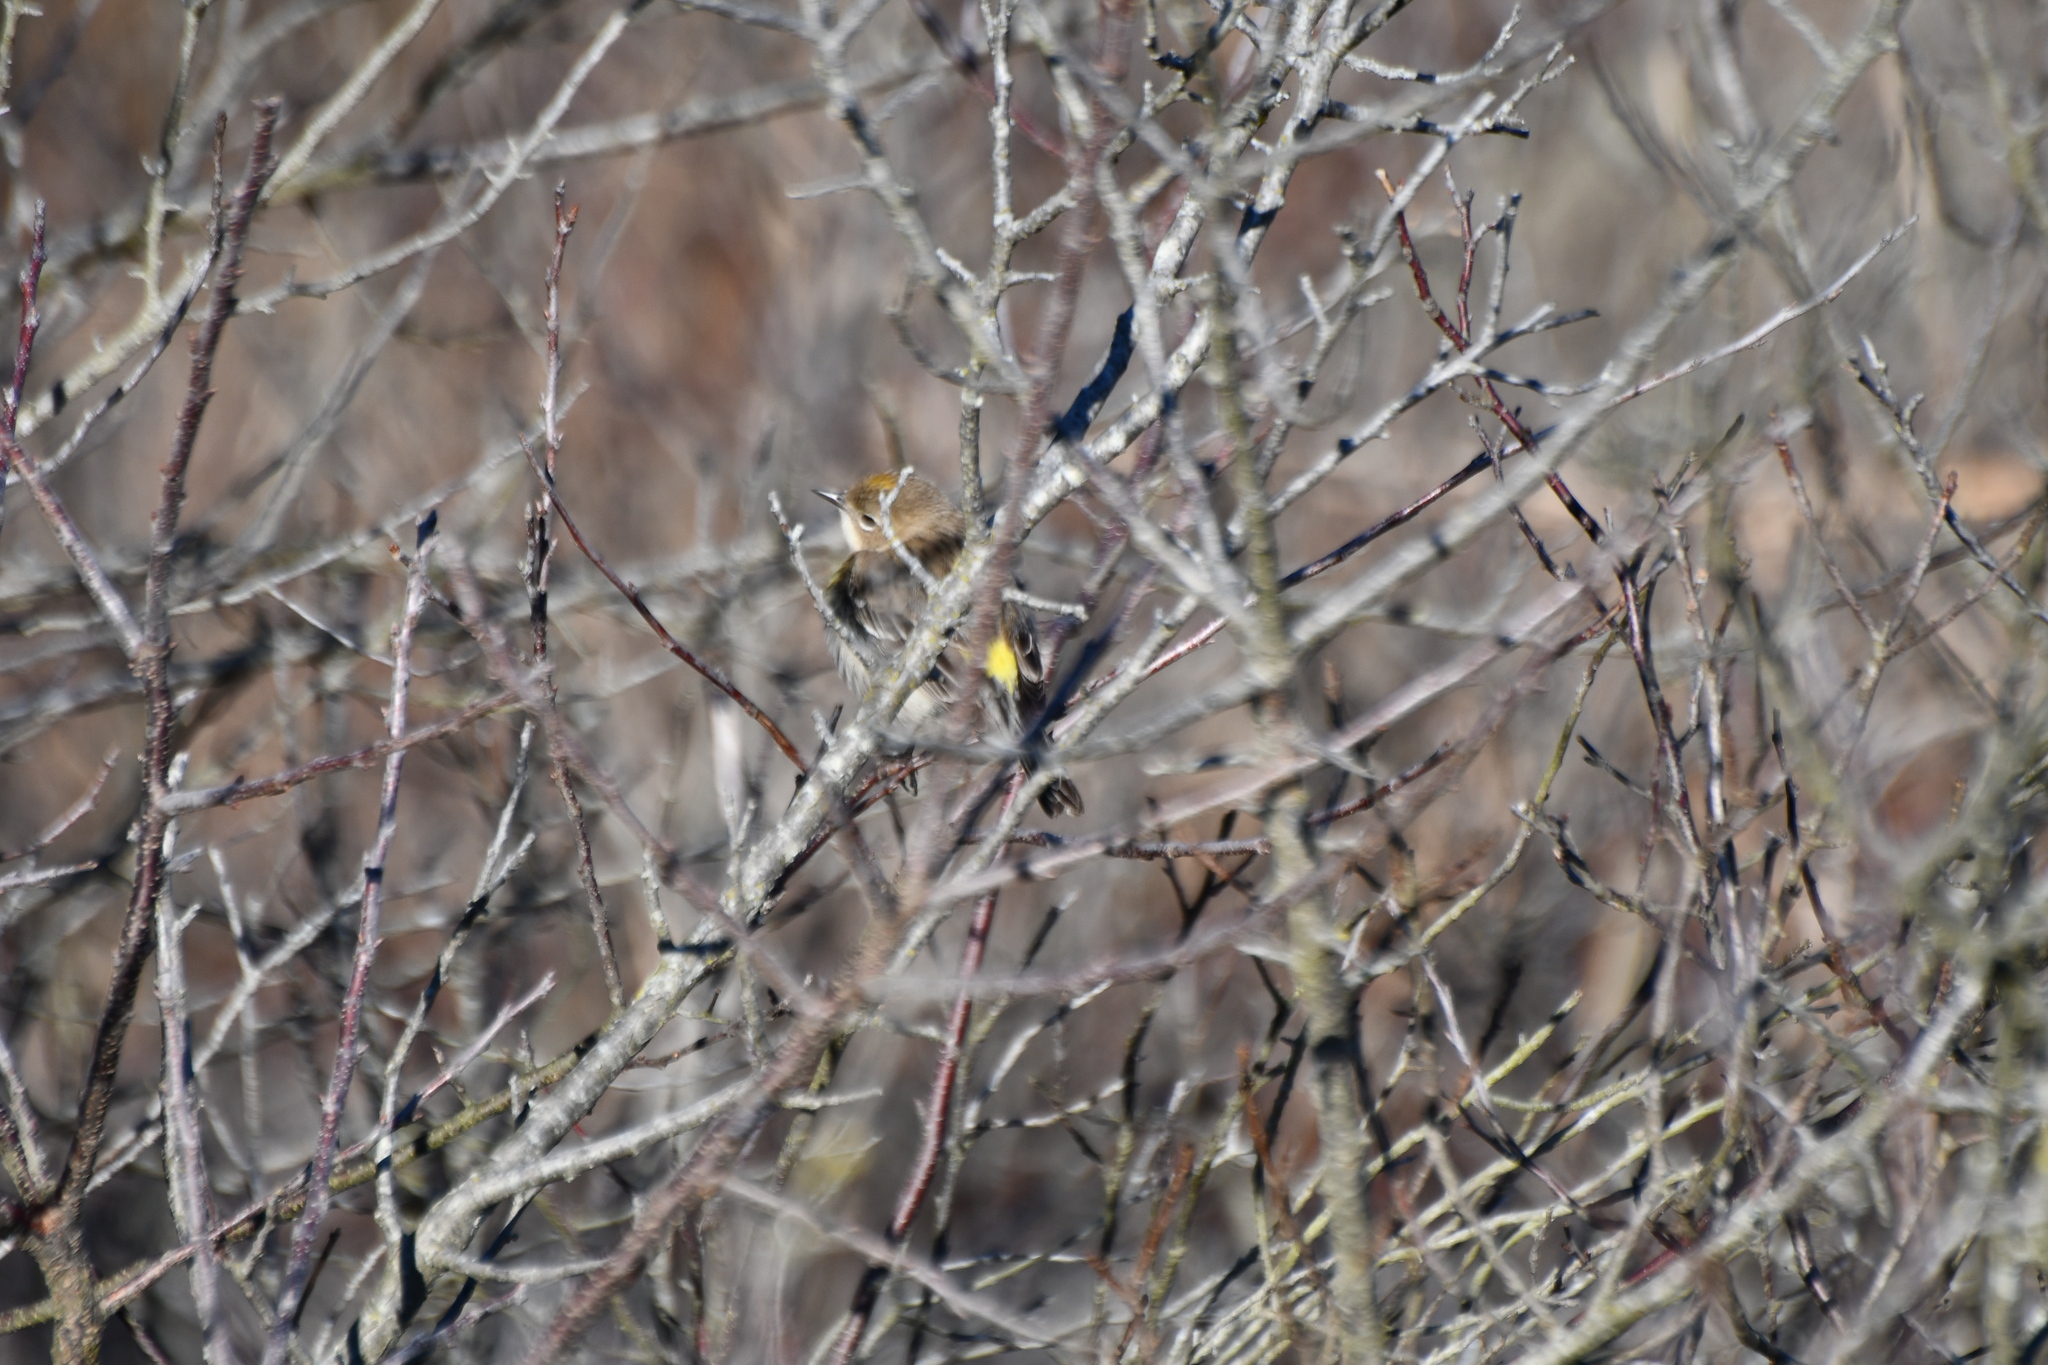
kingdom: Animalia
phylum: Chordata
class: Aves
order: Passeriformes
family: Parulidae
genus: Setophaga
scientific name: Setophaga coronata
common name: Myrtle warbler
